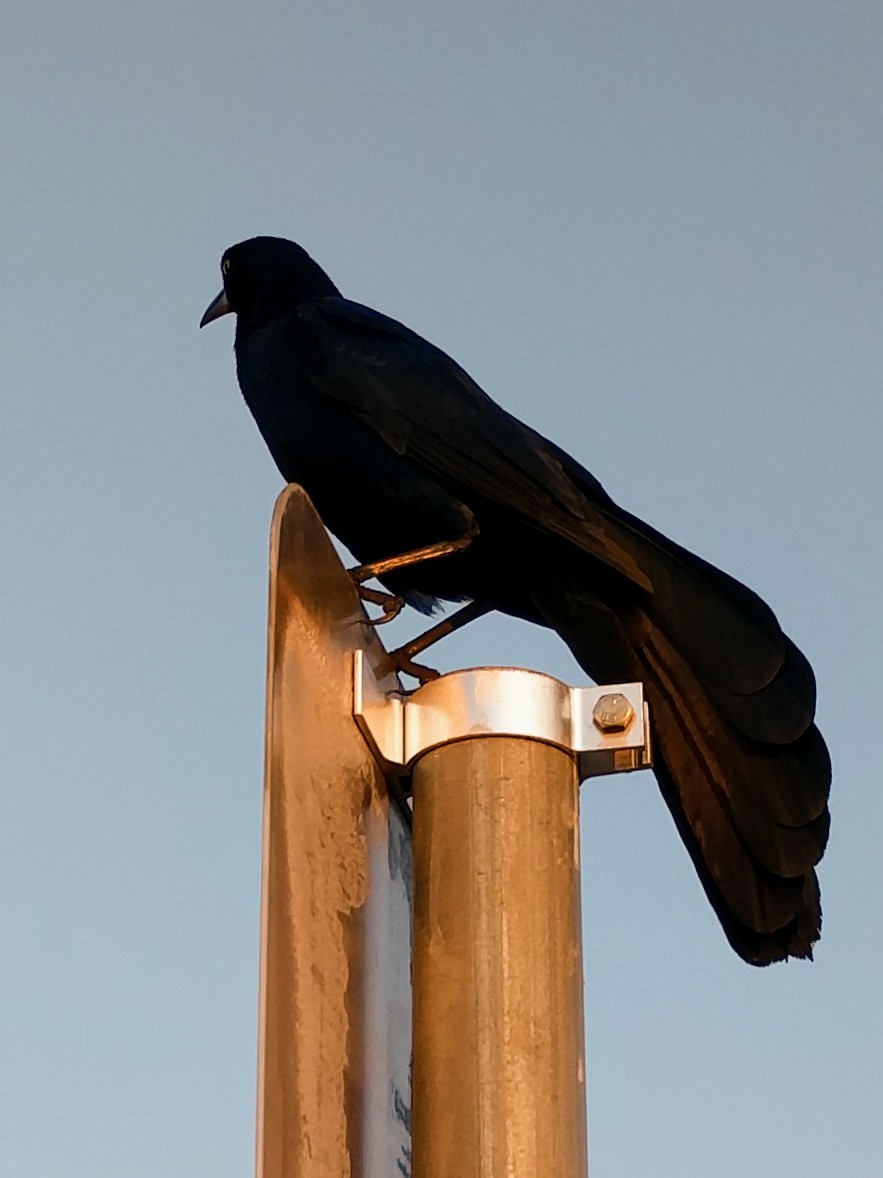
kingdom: Animalia
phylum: Chordata
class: Aves
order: Passeriformes
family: Icteridae
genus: Quiscalus
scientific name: Quiscalus mexicanus
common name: Great-tailed grackle
